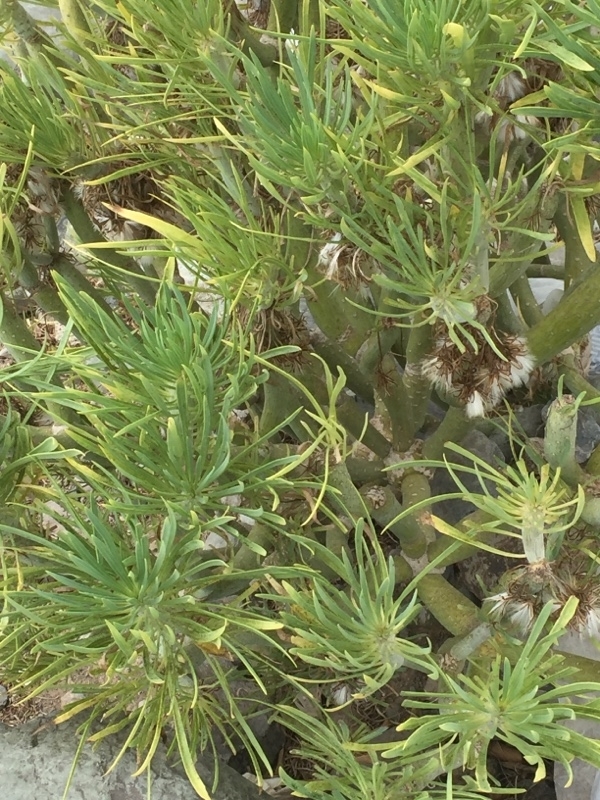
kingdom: Plantae
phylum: Tracheophyta
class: Magnoliopsida
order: Asterales
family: Asteraceae
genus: Kleinia
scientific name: Kleinia neriifolia
